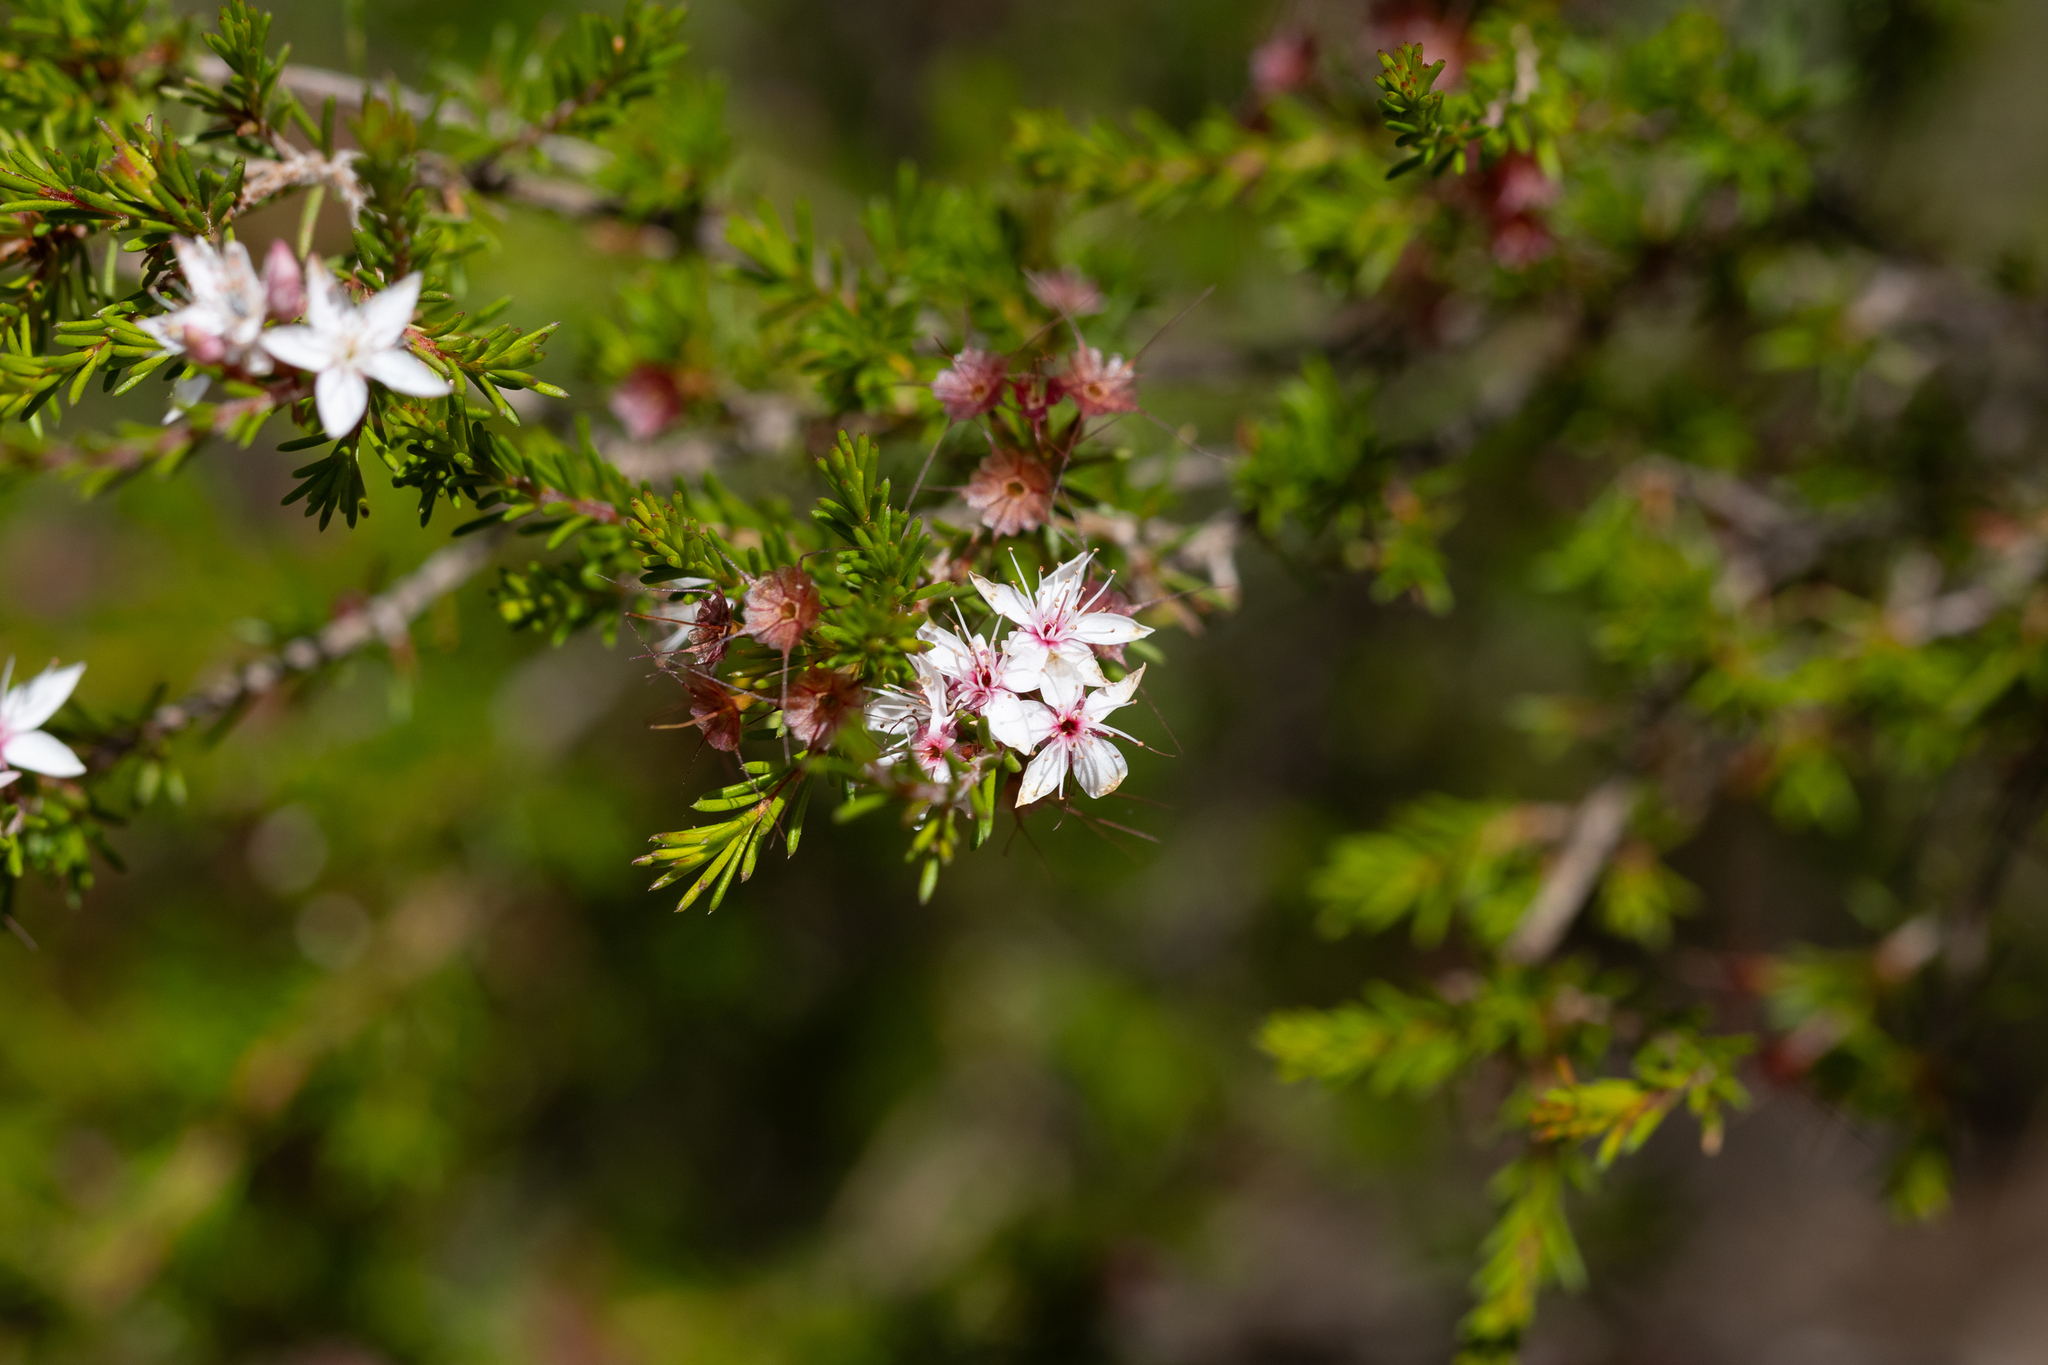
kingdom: Plantae
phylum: Tracheophyta
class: Magnoliopsida
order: Myrtales
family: Myrtaceae
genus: Calytrix
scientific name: Calytrix tetragona
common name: Common fringe myrtle
